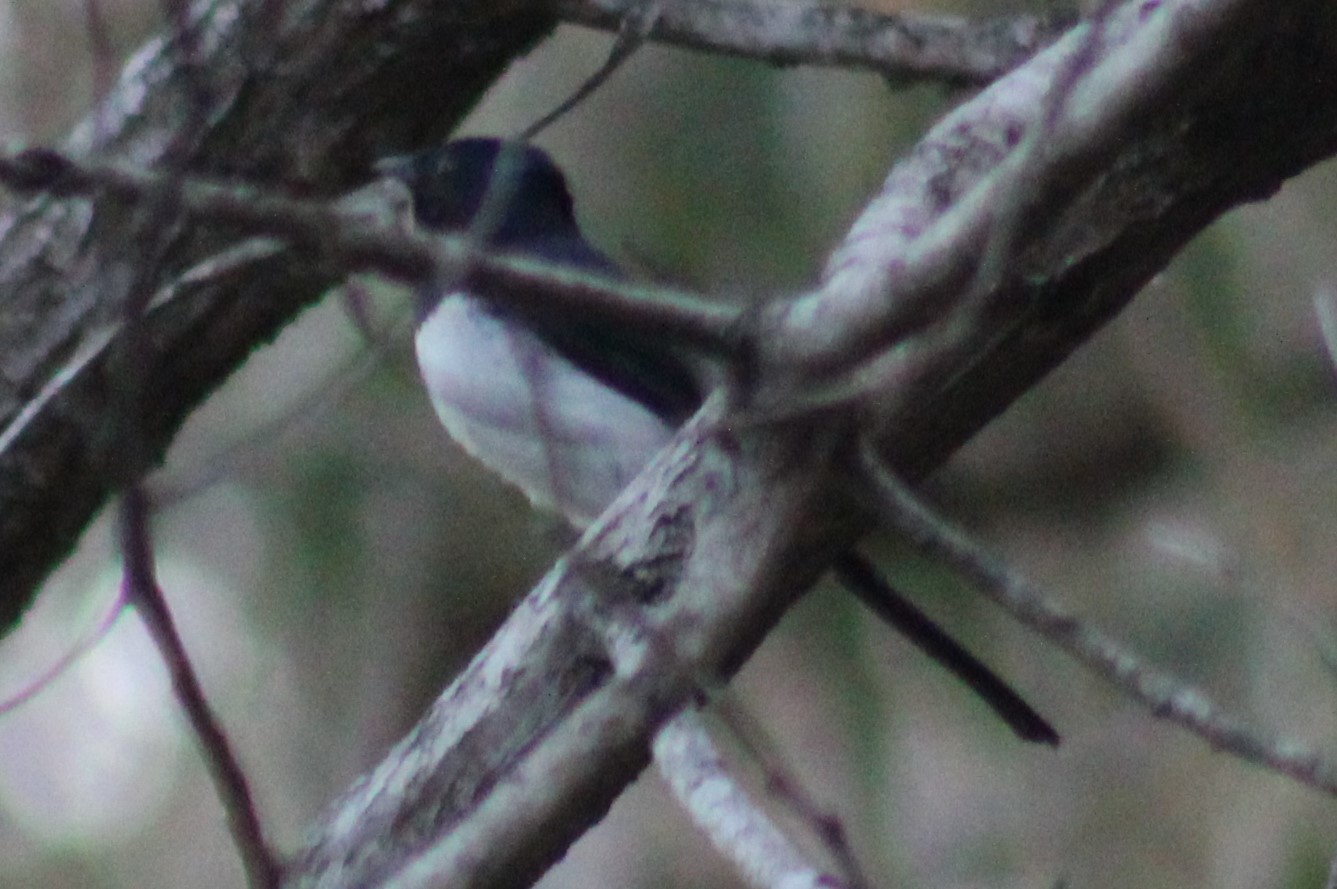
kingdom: Animalia
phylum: Chordata
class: Aves
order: Passeriformes
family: Monarchidae
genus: Myiagra
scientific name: Myiagra cyanoleuca
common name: Satin flycatcher
